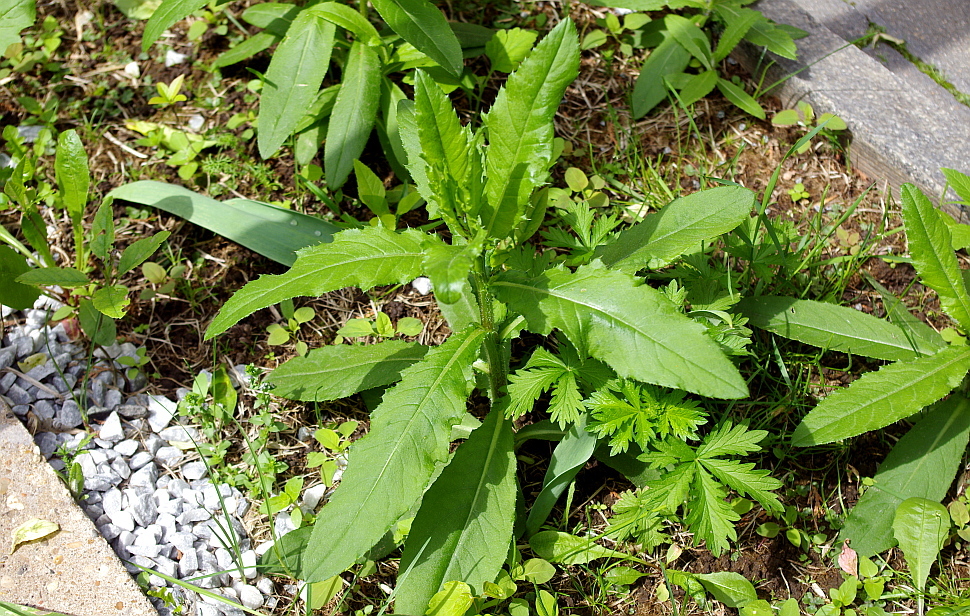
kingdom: Plantae
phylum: Tracheophyta
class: Magnoliopsida
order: Rosales
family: Rosaceae
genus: Potentilla
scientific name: Potentilla intermedia
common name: Downy cinquefoil
